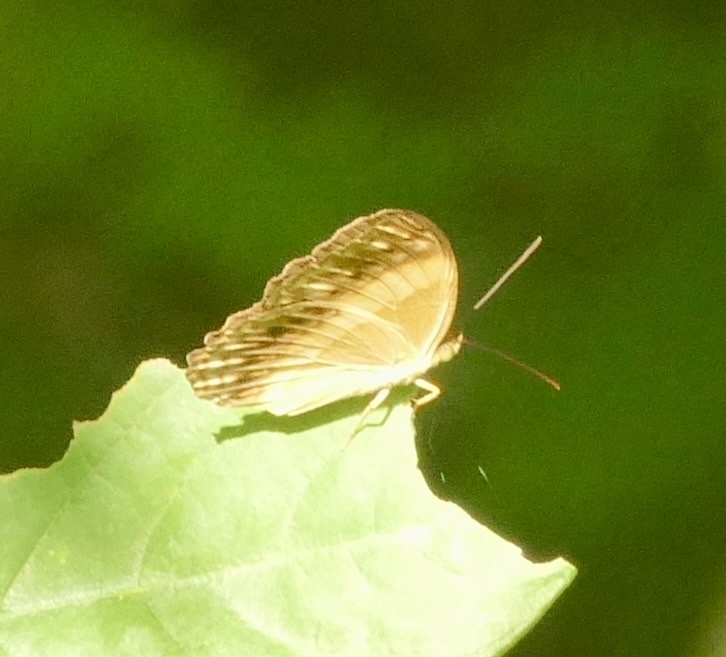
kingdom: Animalia
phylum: Arthropoda
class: Insecta
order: Lepidoptera
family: Nymphalidae
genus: Cupha
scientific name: Cupha prosope
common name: Bordered rustic
